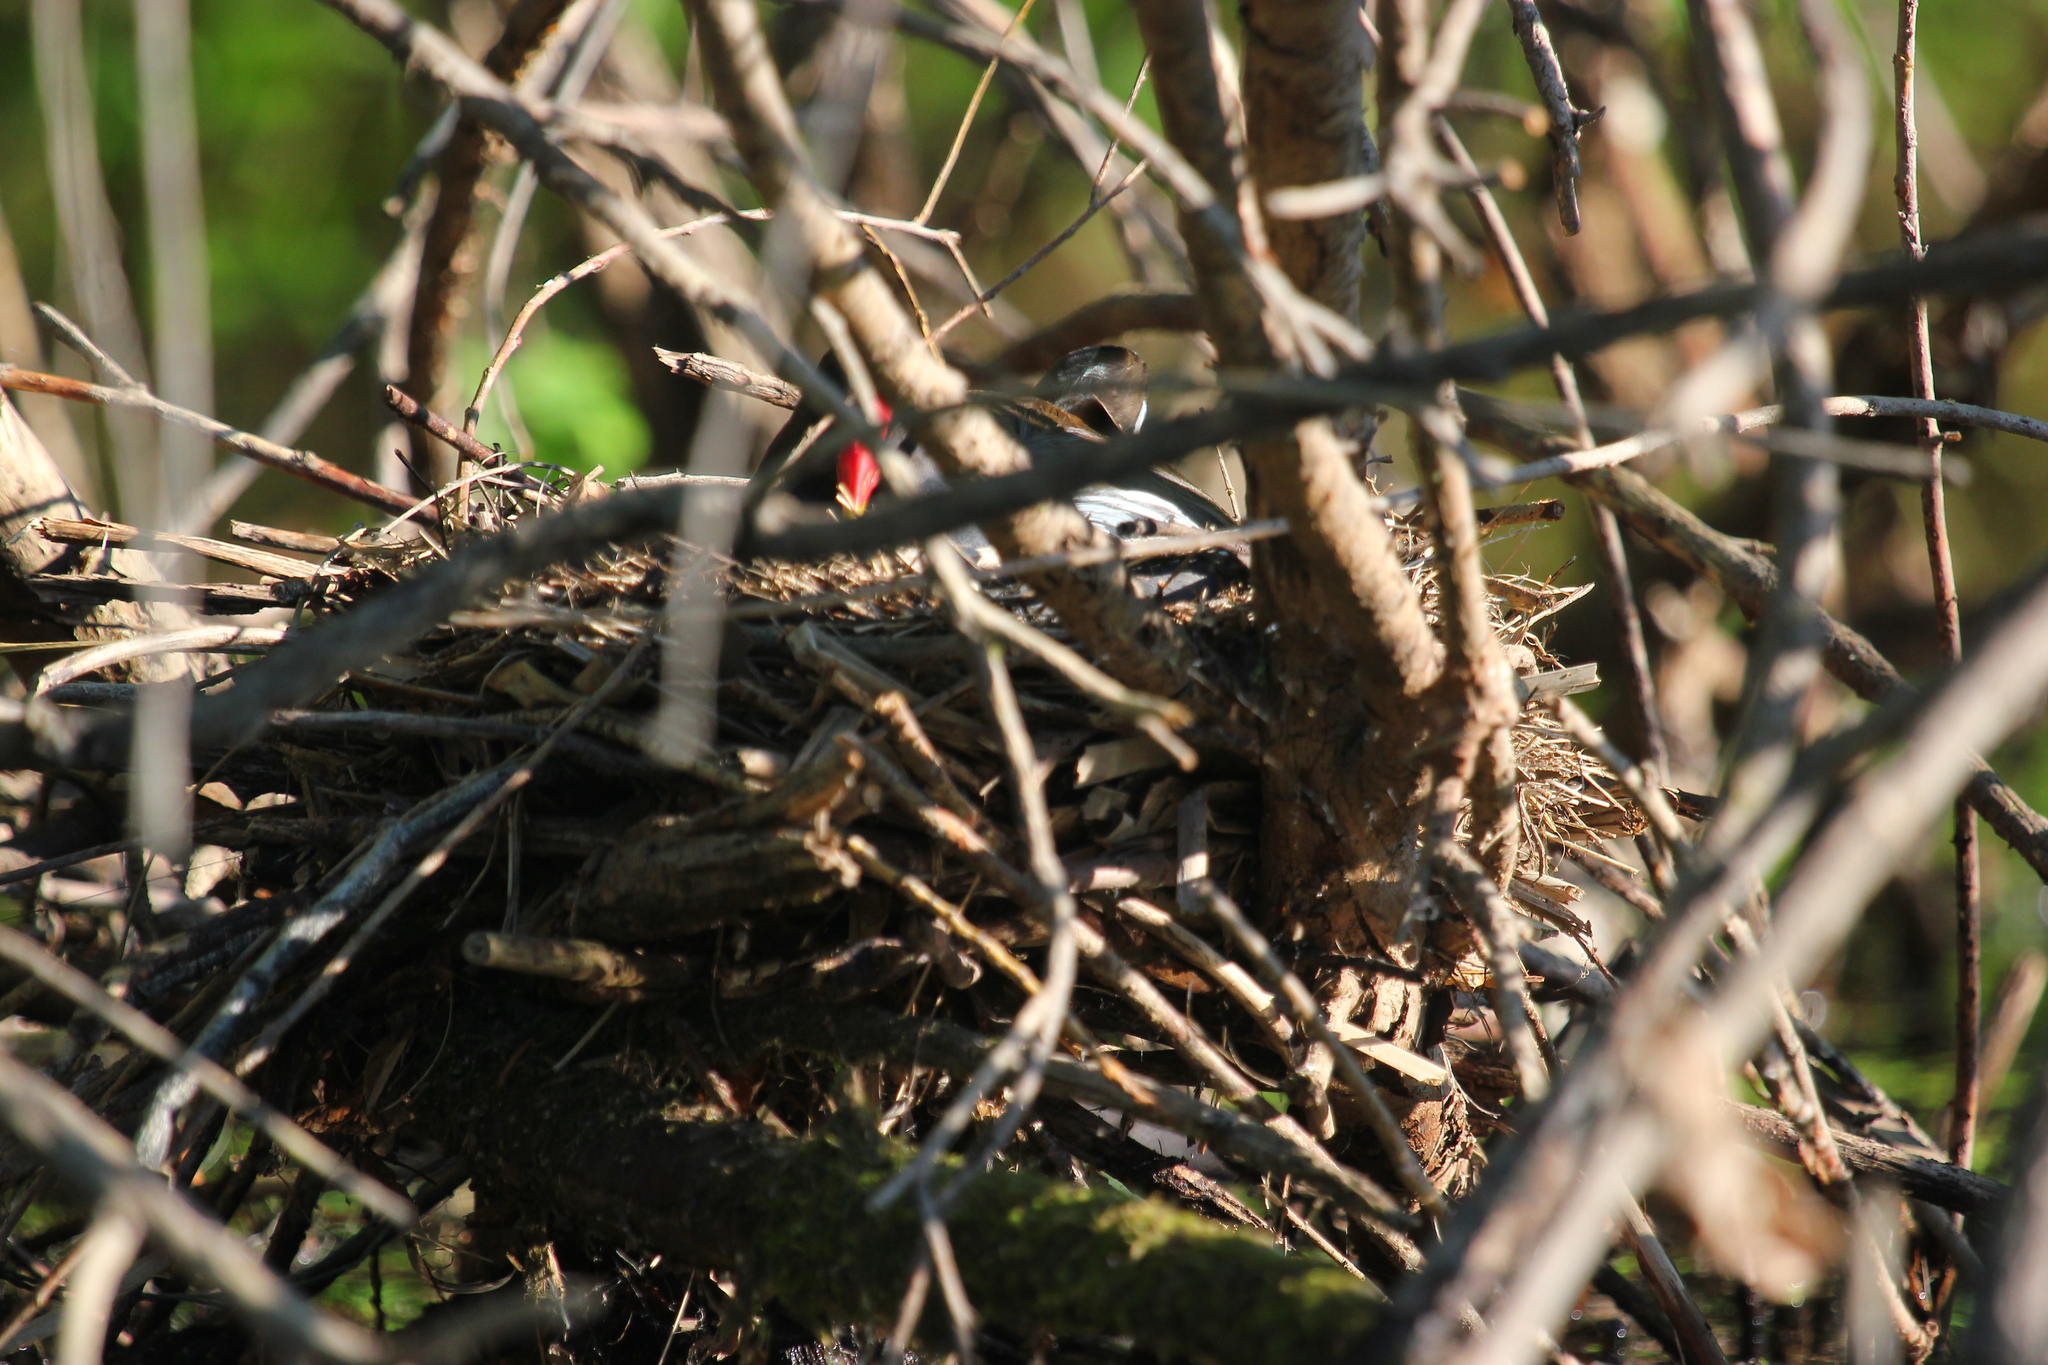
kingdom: Animalia
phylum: Chordata
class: Aves
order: Gruiformes
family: Rallidae
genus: Gallinula
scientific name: Gallinula chloropus
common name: Common moorhen
